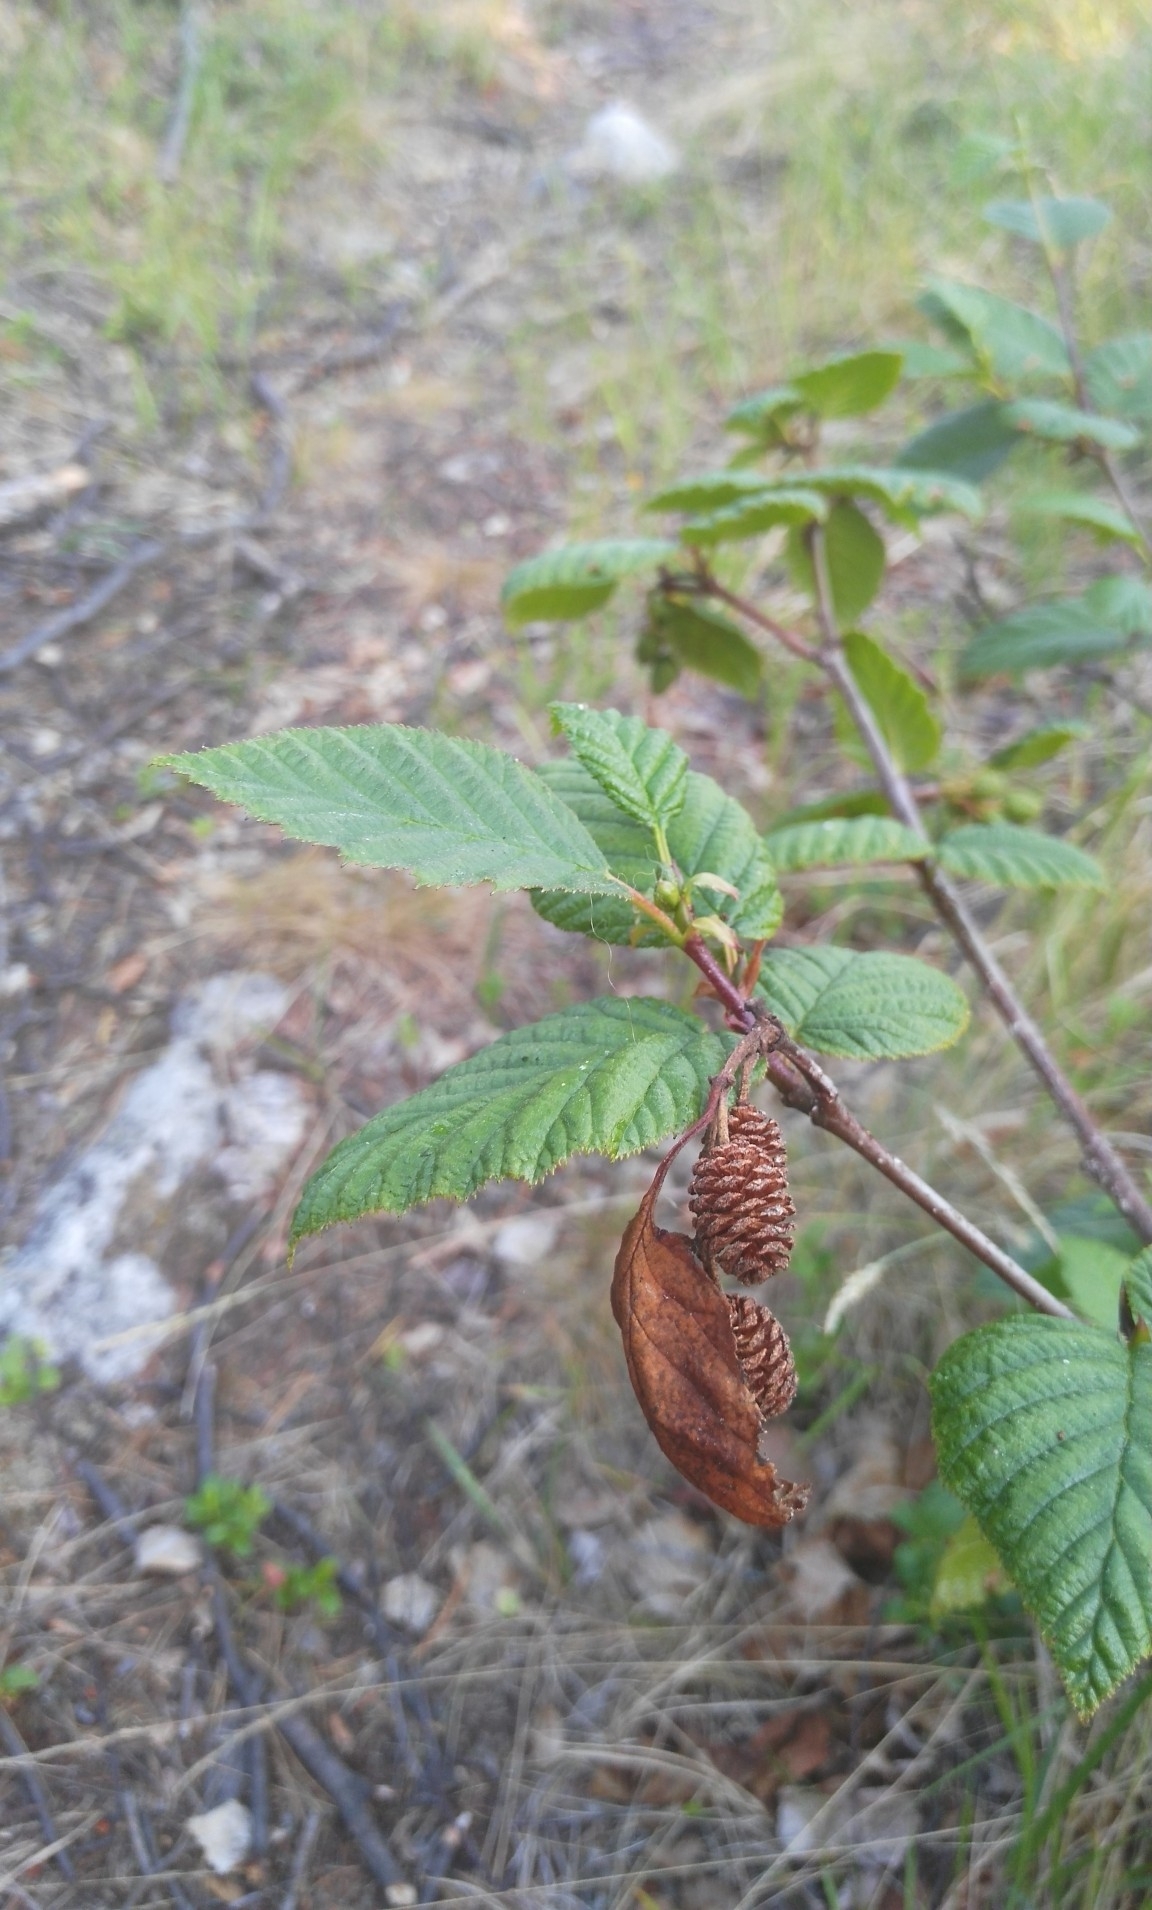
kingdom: Plantae
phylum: Tracheophyta
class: Magnoliopsida
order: Fagales
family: Betulaceae
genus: Alnus
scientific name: Alnus alnobetula
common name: Green alder
